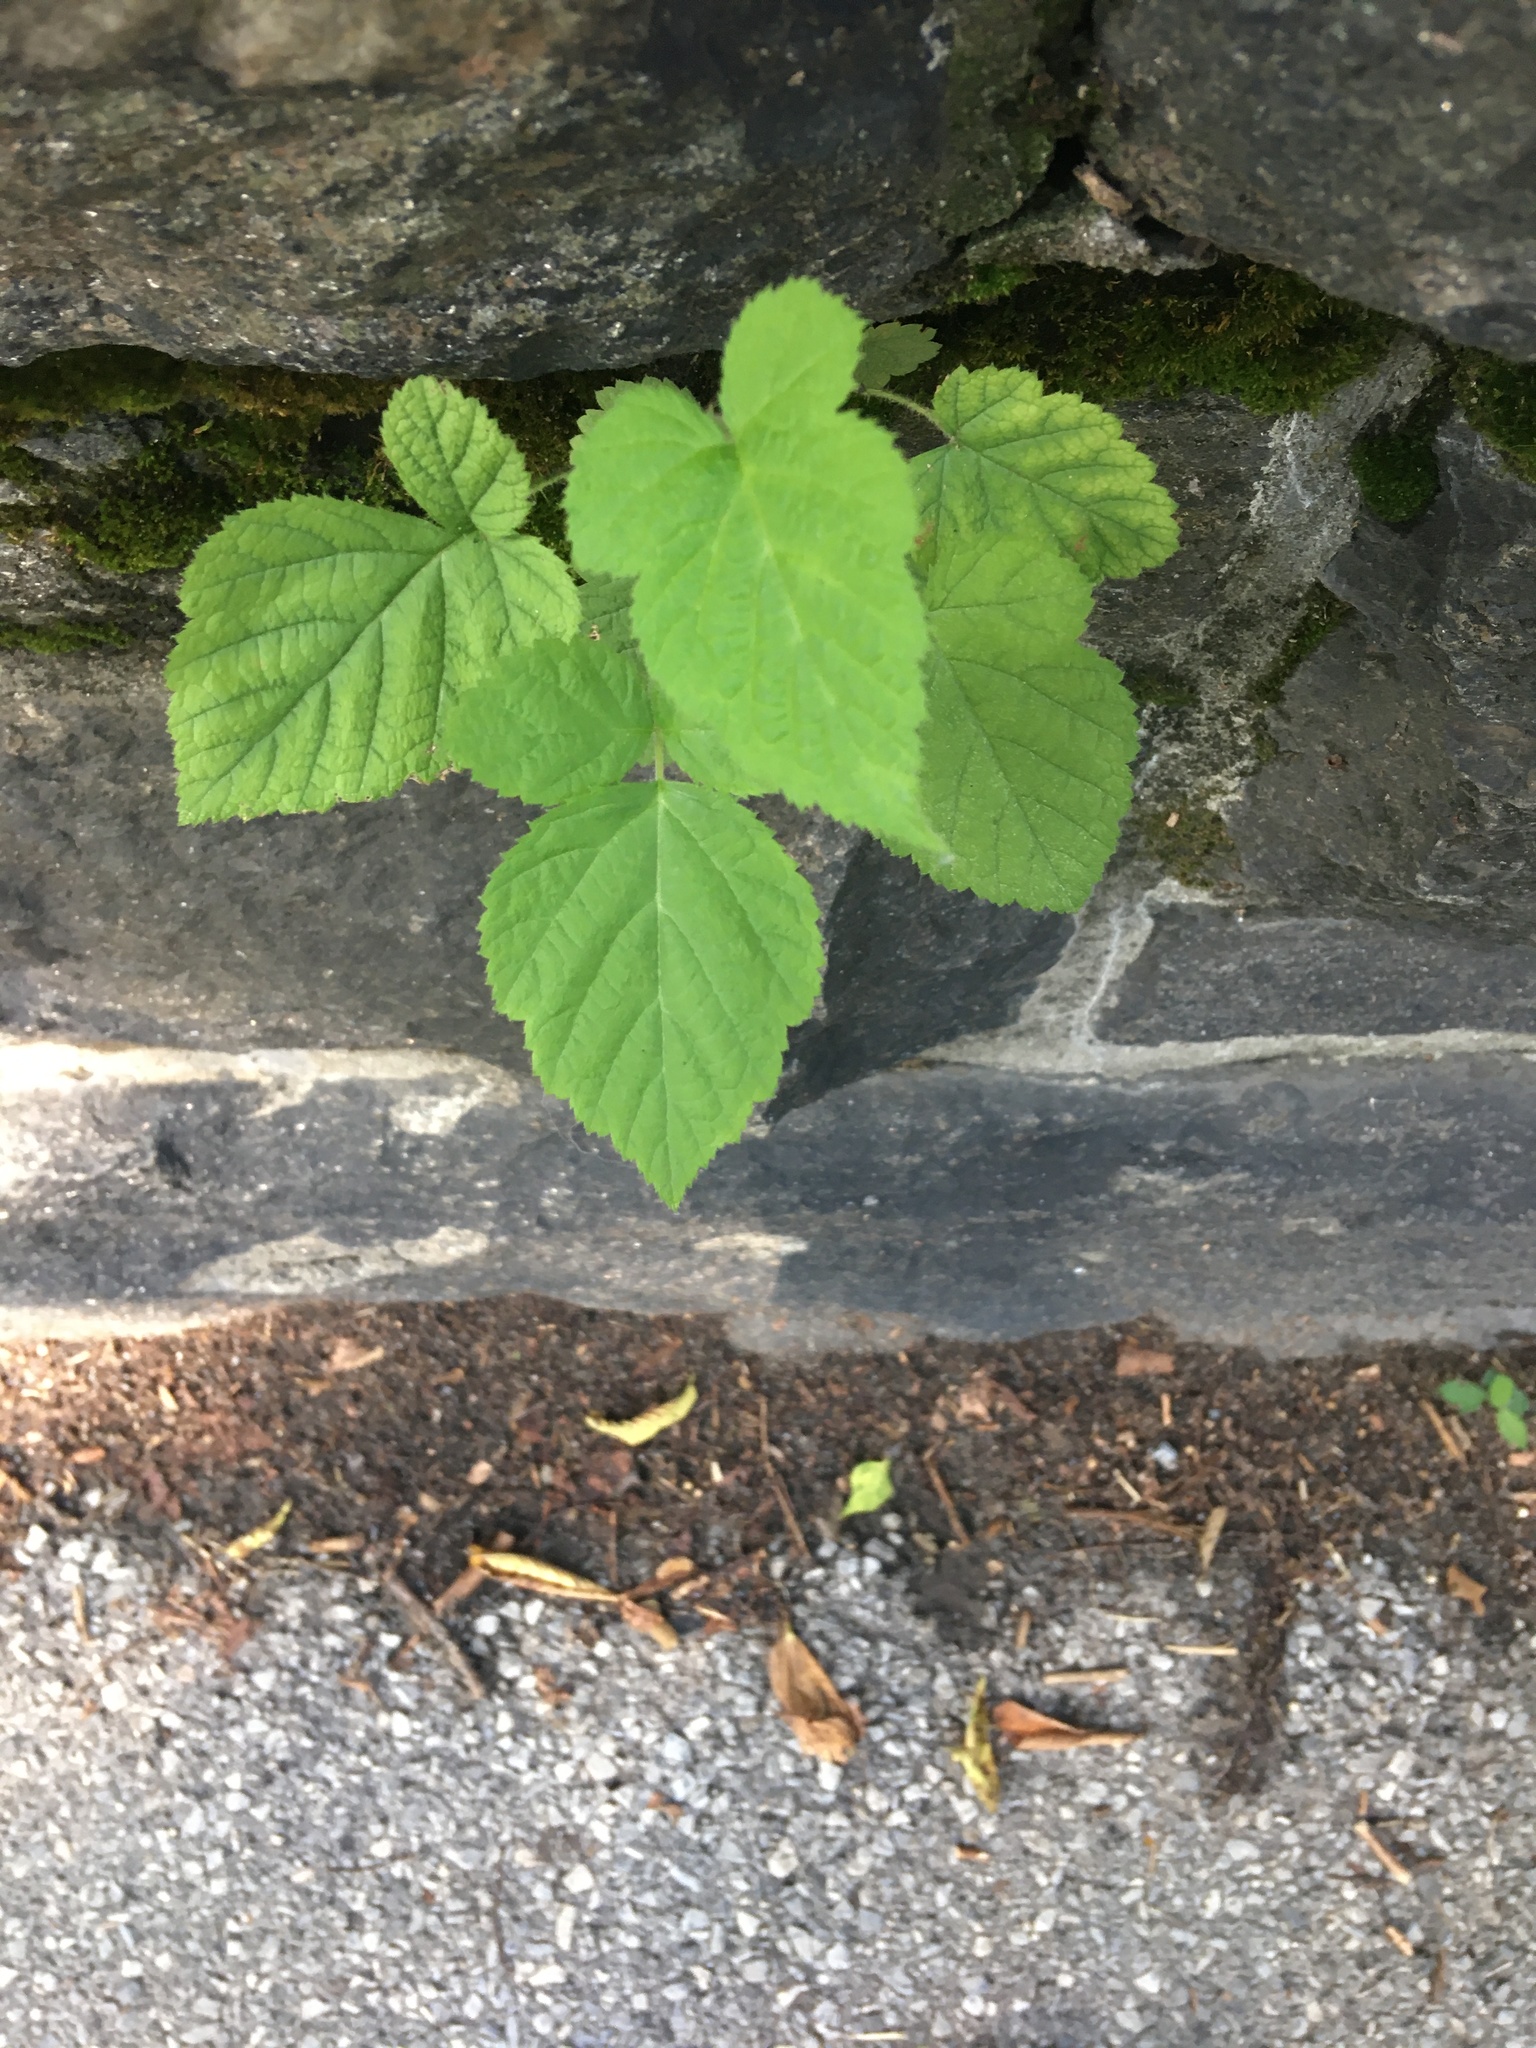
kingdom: Plantae
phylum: Tracheophyta
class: Magnoliopsida
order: Rosales
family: Rosaceae
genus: Rubus
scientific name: Rubus phoenicolasius
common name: Japanese wineberry
